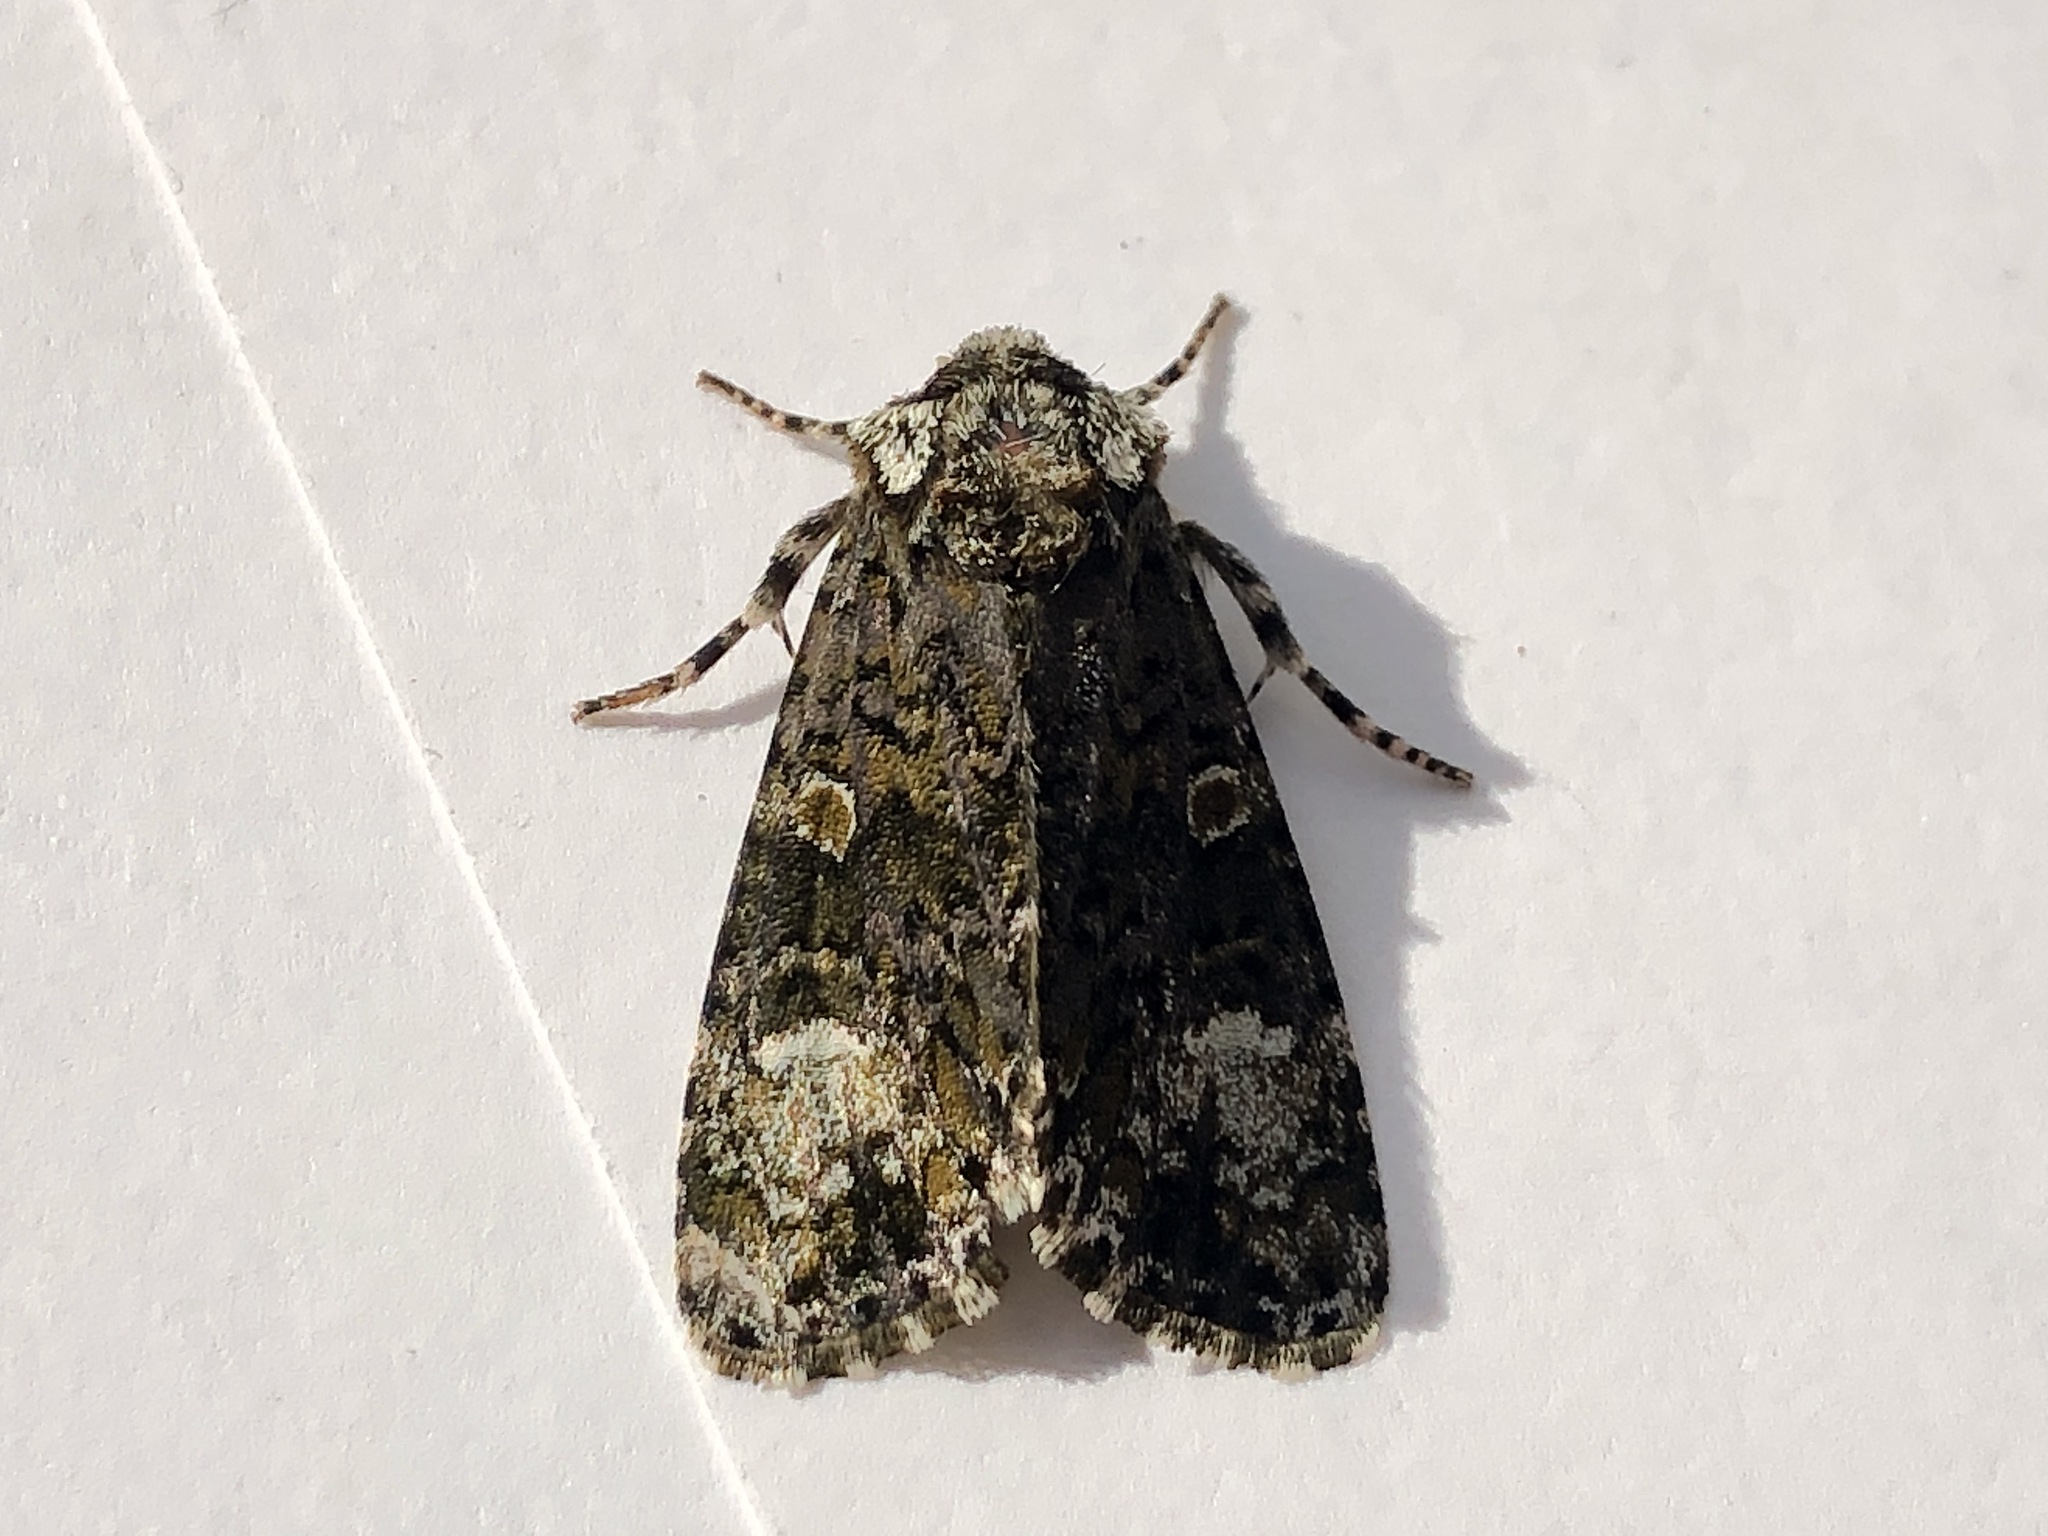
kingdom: Animalia
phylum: Arthropoda
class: Insecta
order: Lepidoptera
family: Noctuidae
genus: Craniophora
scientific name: Craniophora ligustri
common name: Coronet
